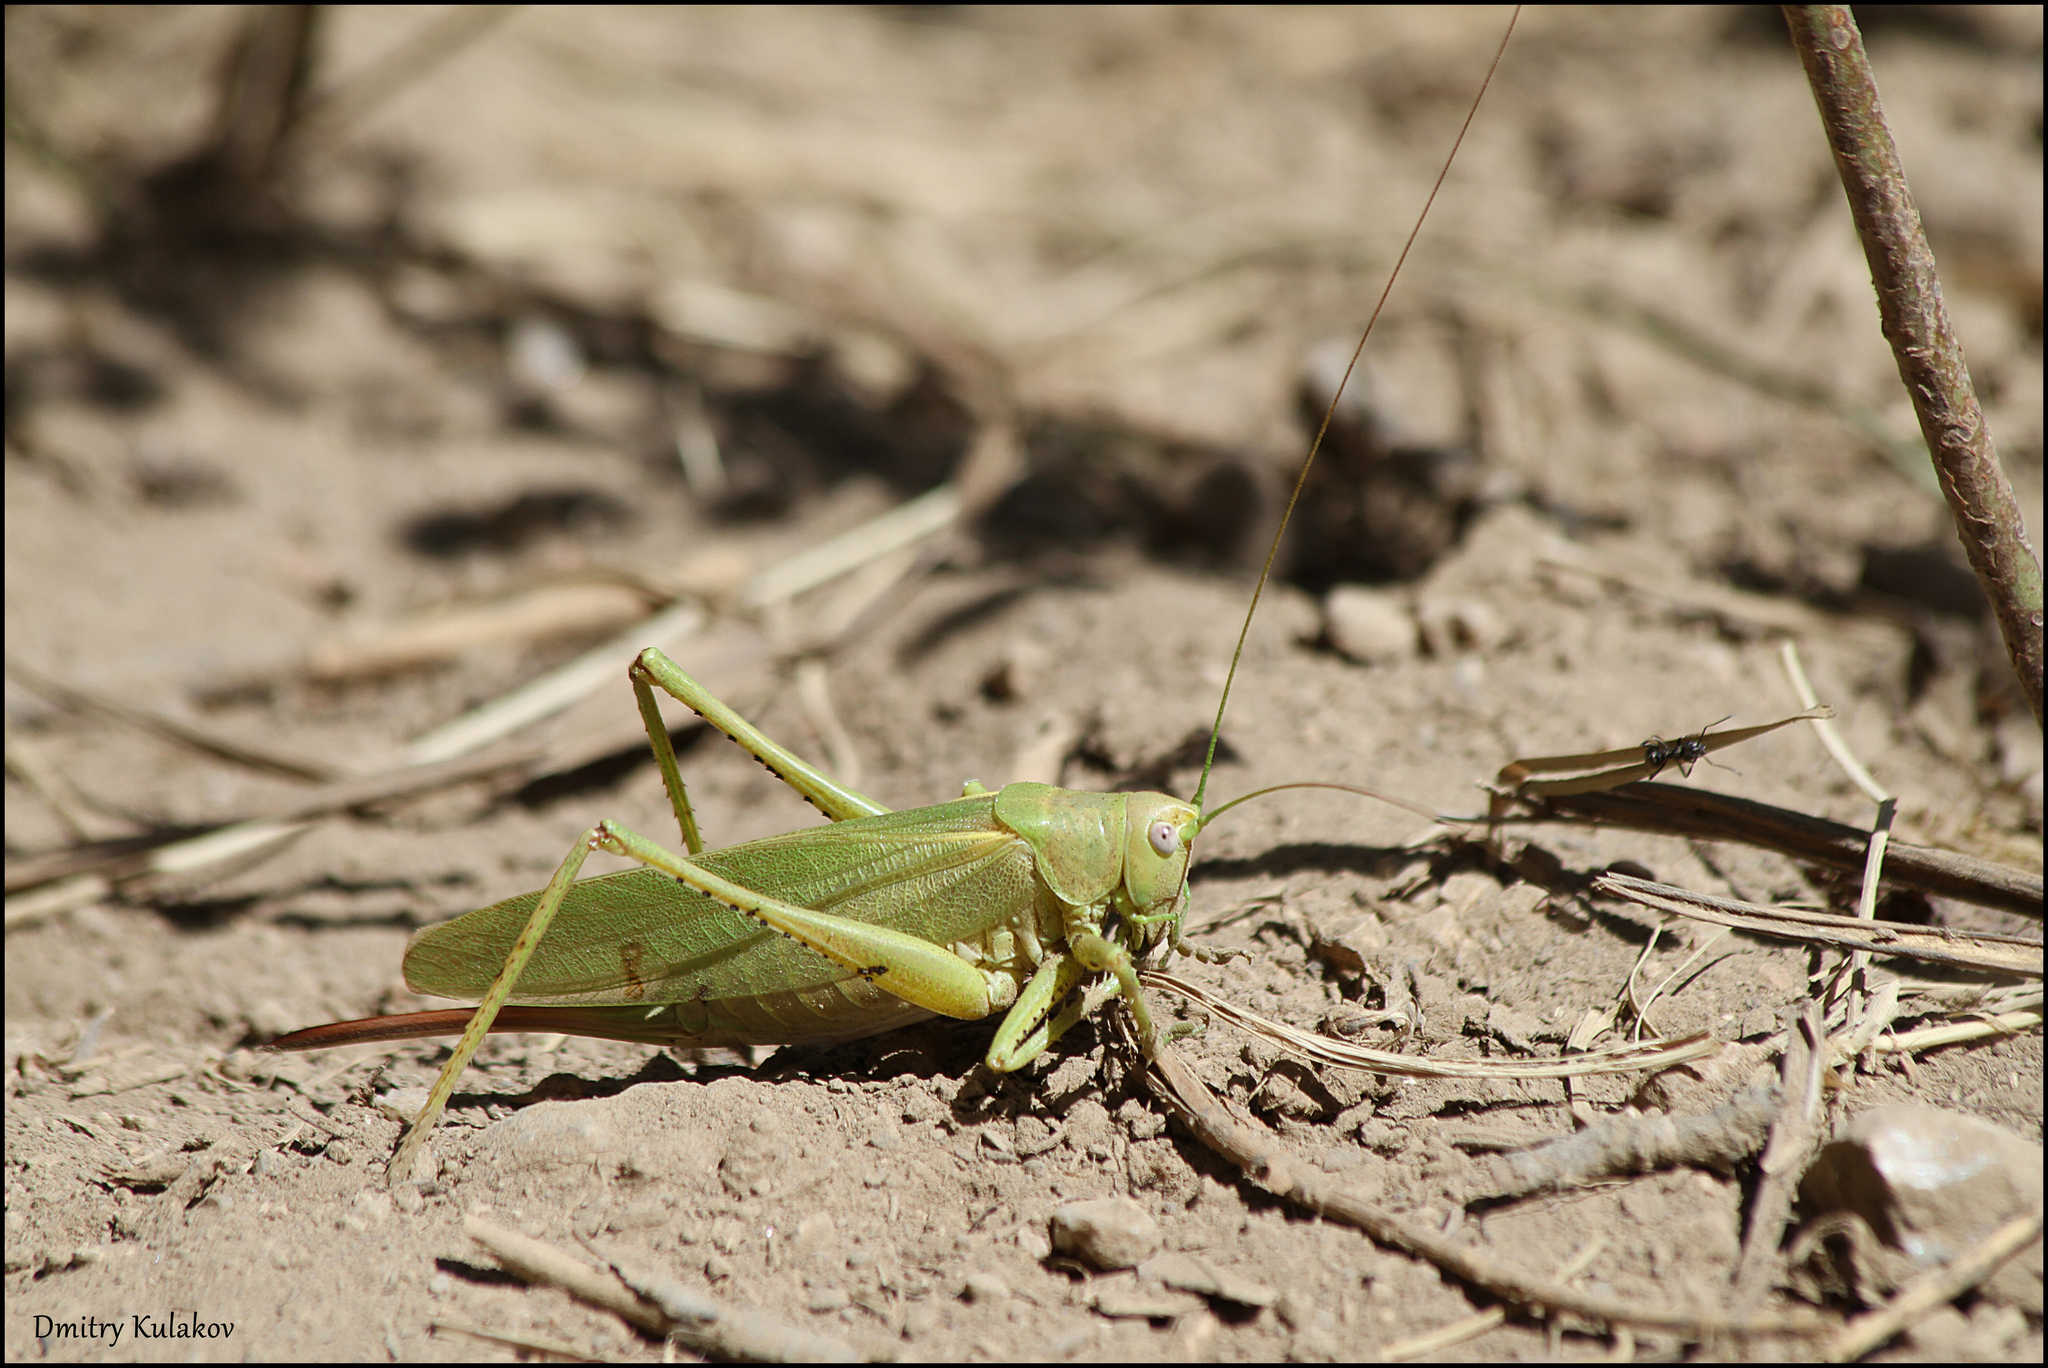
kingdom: Animalia
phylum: Arthropoda
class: Insecta
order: Orthoptera
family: Tettigoniidae
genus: Tettigonia
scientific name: Tettigonia caudata
